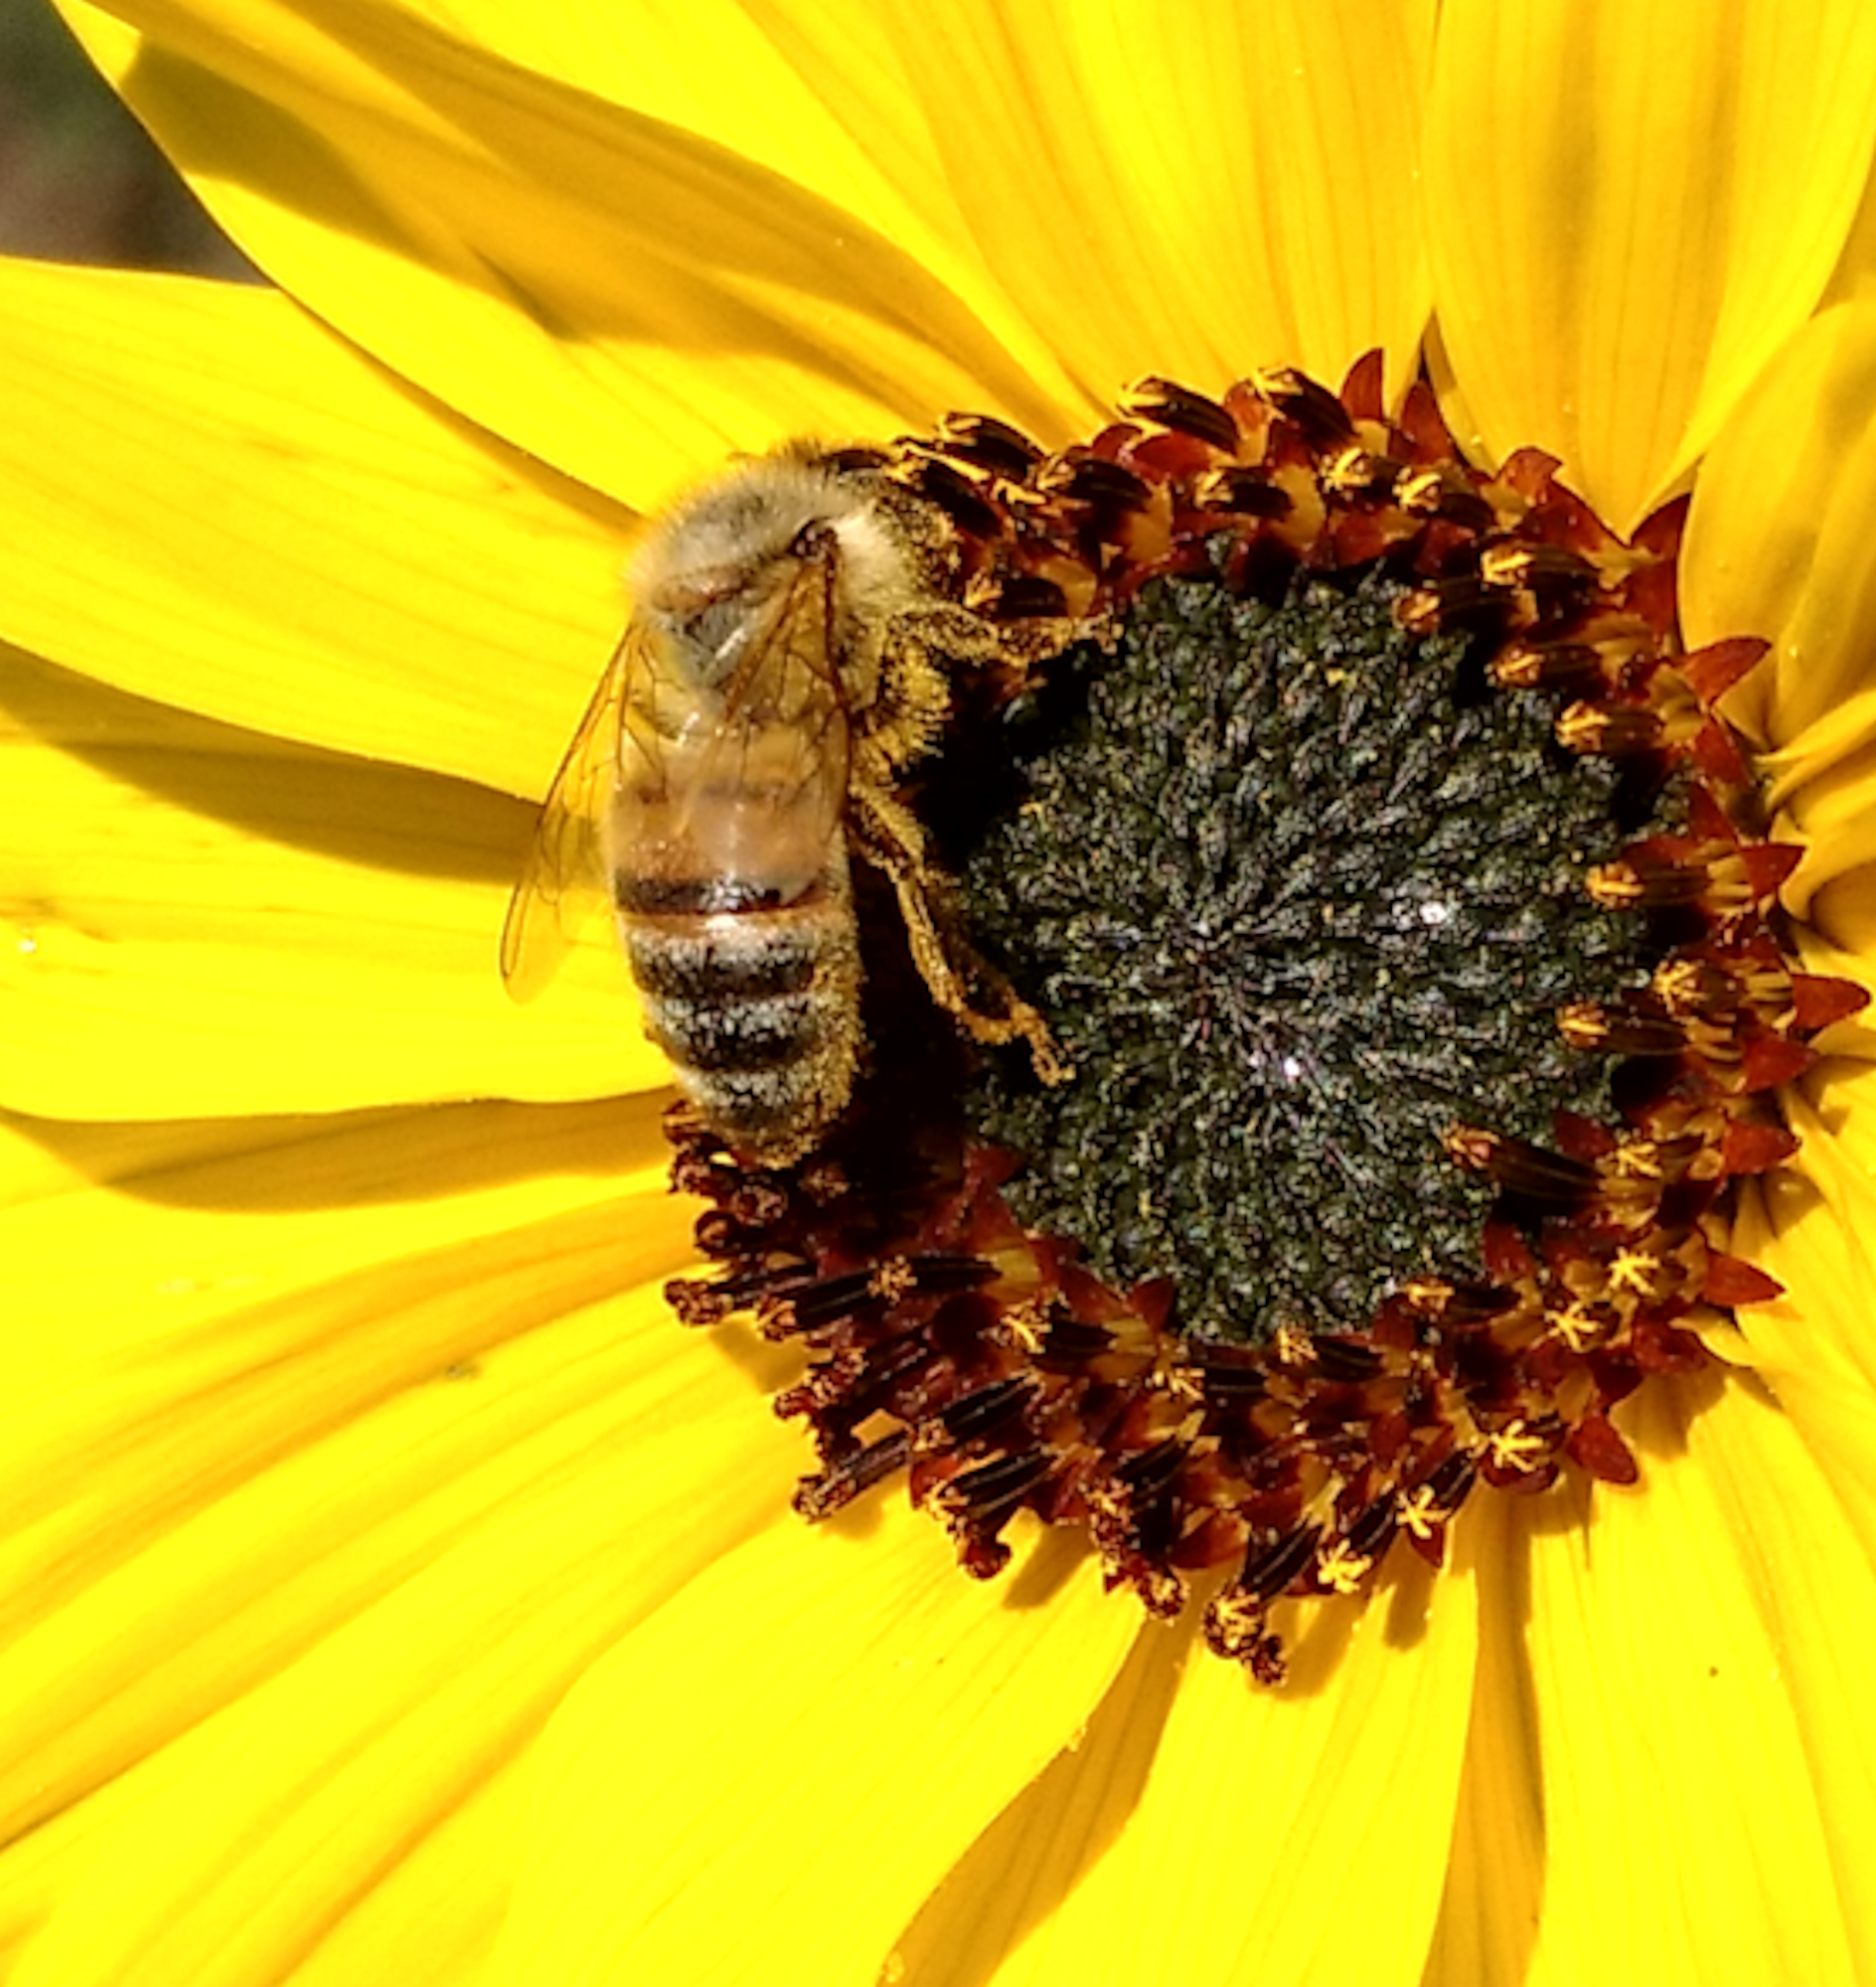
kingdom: Animalia
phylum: Arthropoda
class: Insecta
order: Hymenoptera
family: Apidae
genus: Apis
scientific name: Apis mellifera
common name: Honey bee
